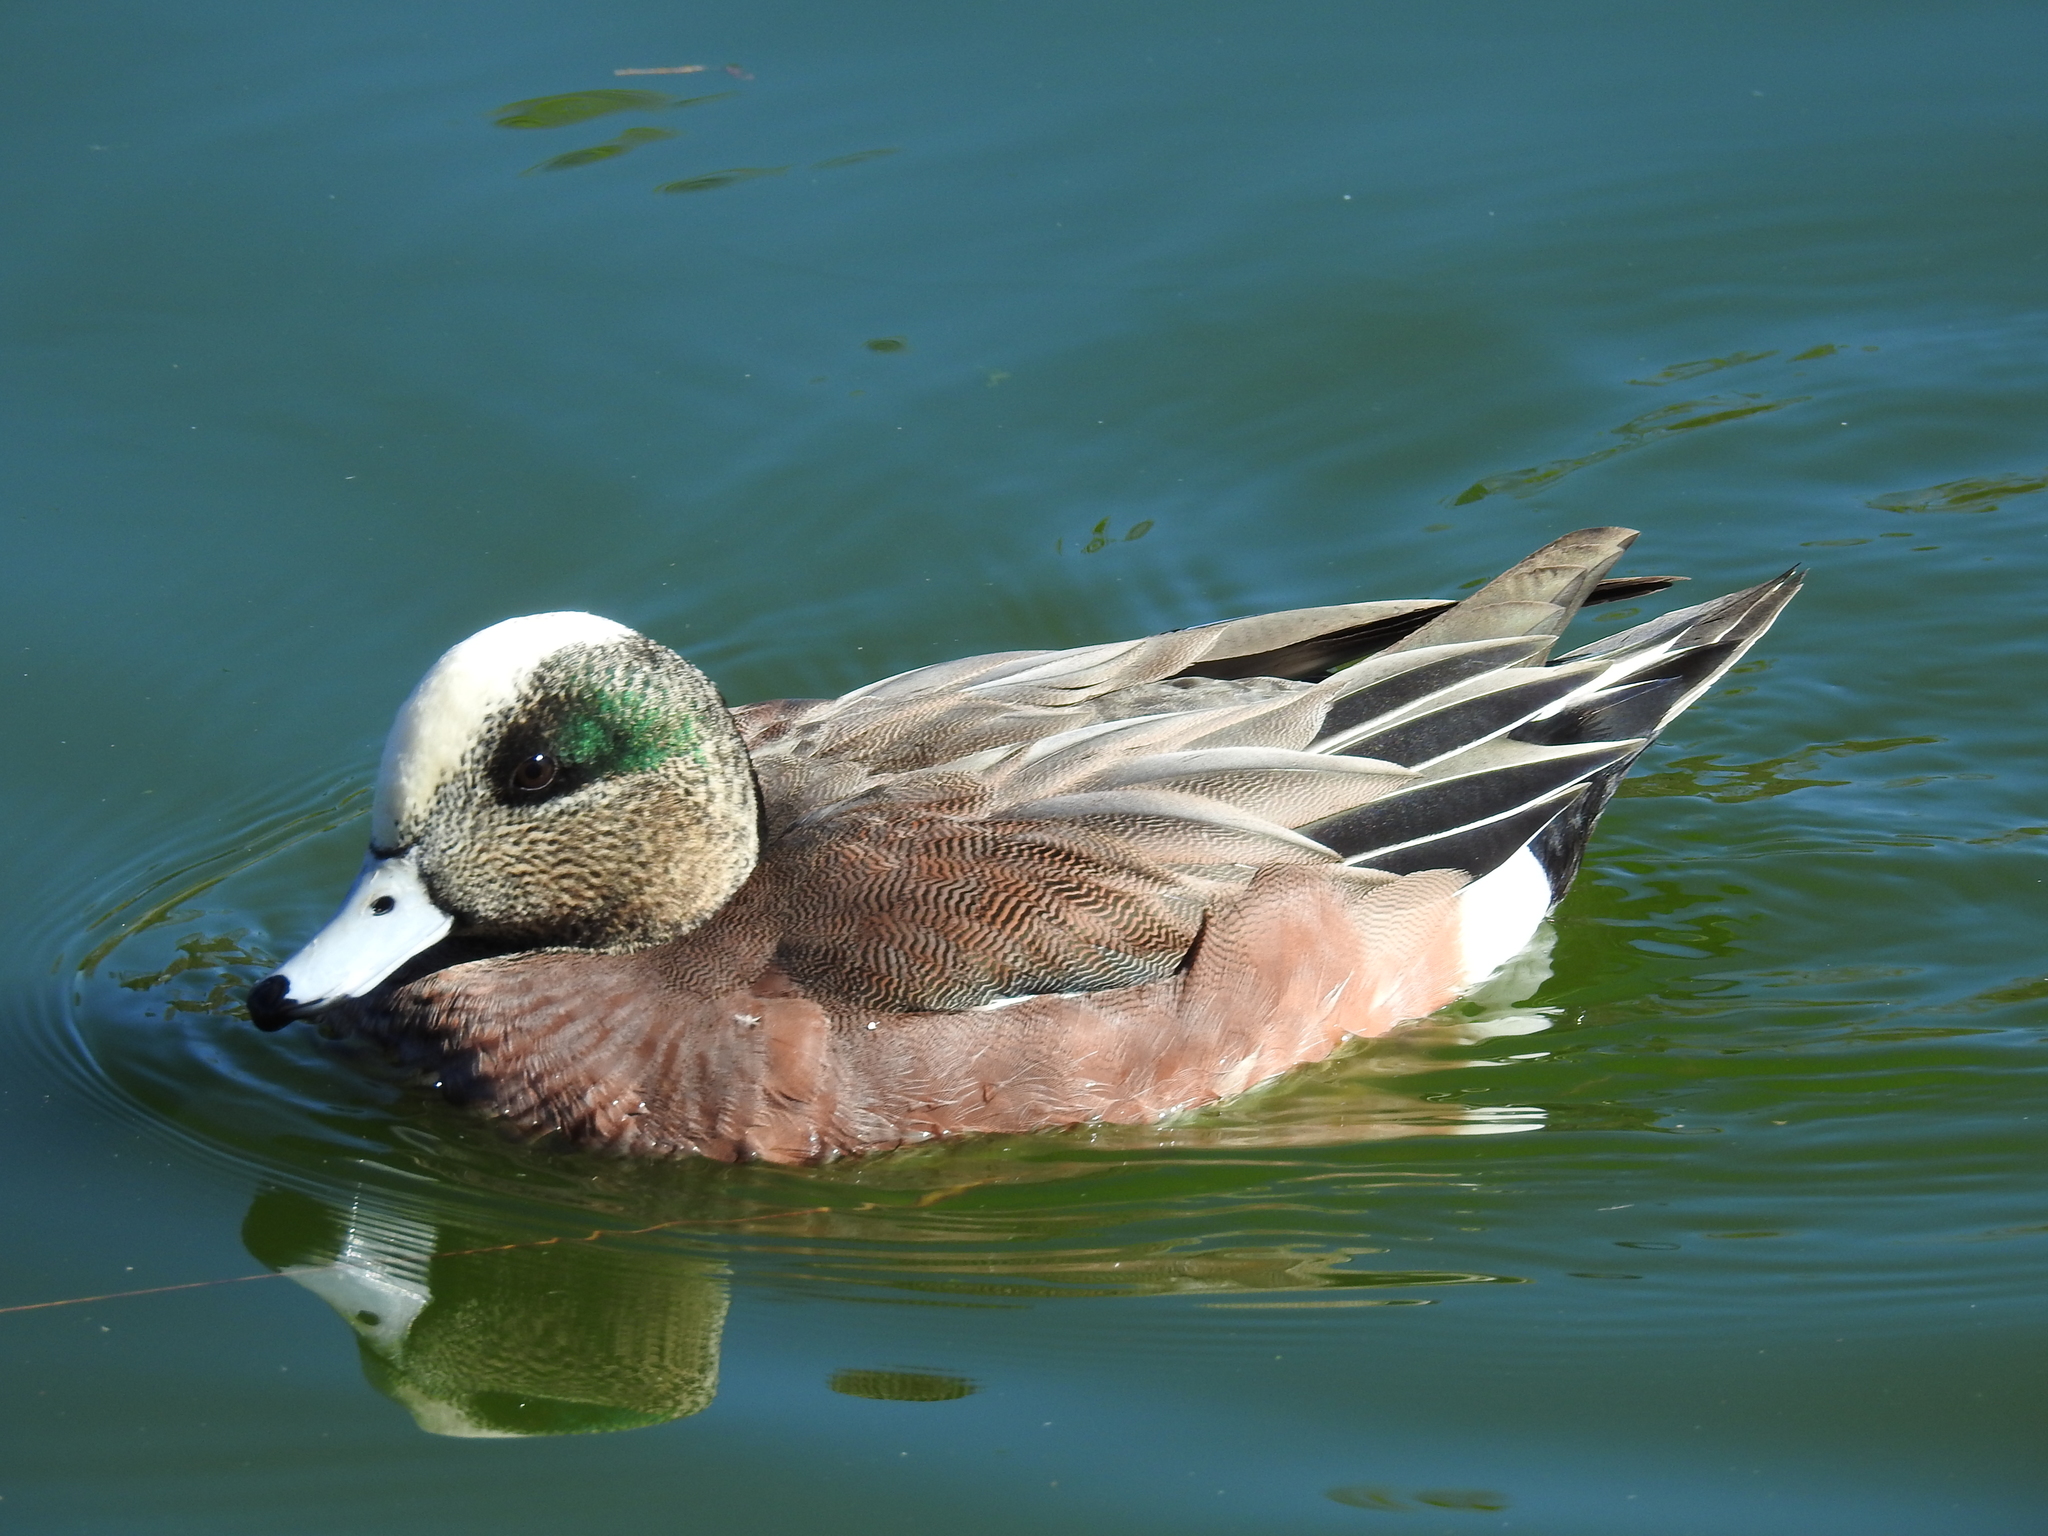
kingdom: Animalia
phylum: Chordata
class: Aves
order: Anseriformes
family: Anatidae
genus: Mareca
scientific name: Mareca americana
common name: American wigeon
